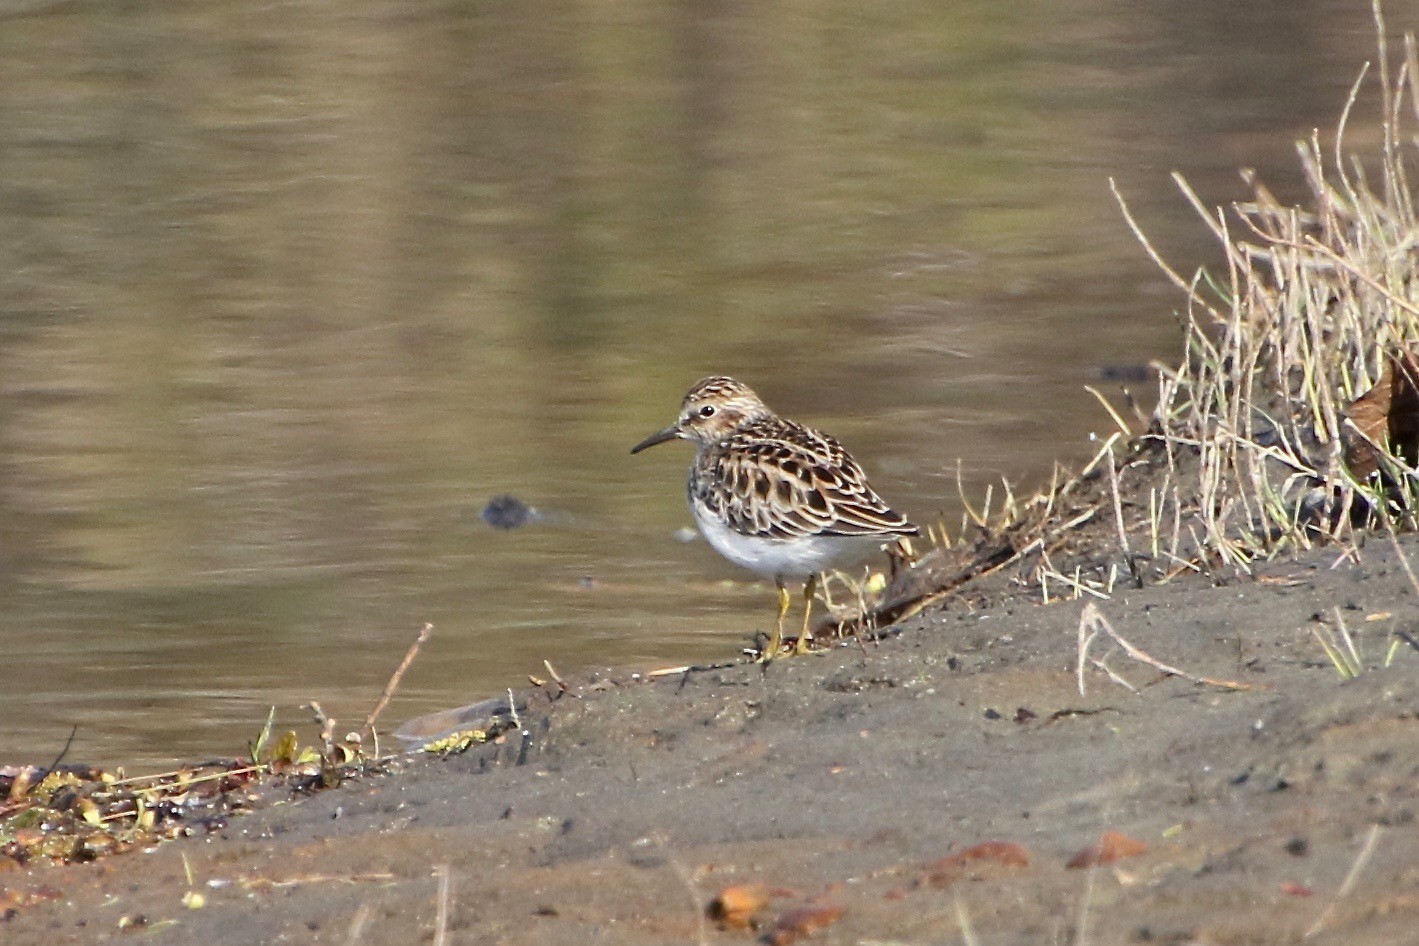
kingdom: Animalia
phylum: Chordata
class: Aves
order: Charadriiformes
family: Scolopacidae
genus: Calidris
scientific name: Calidris minutilla
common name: Least sandpiper
